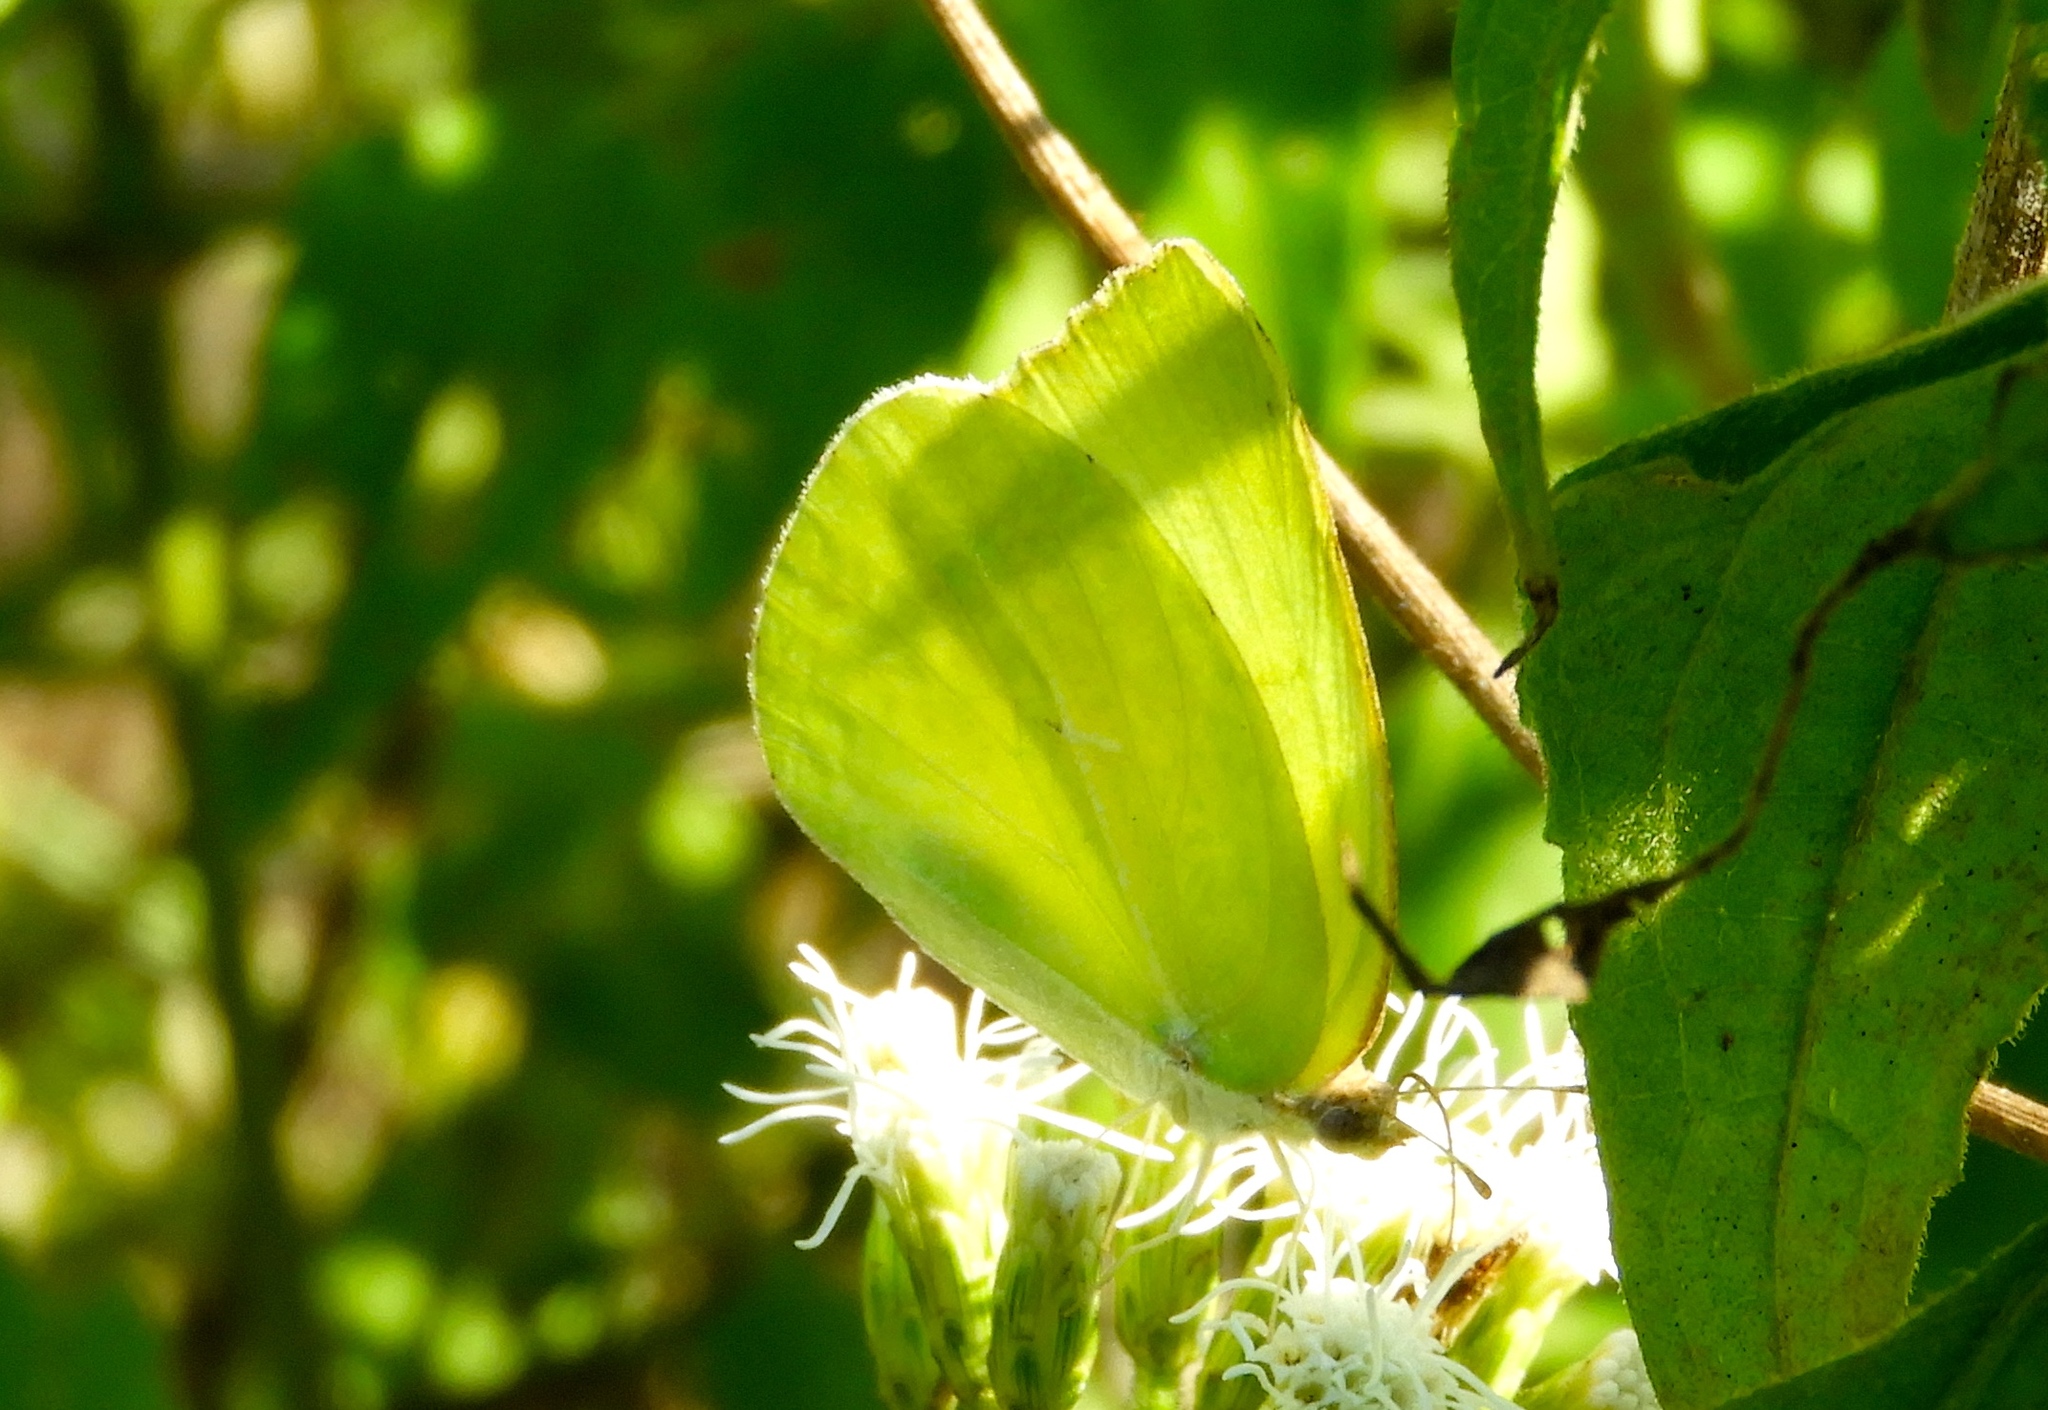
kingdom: Animalia
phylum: Arthropoda
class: Insecta
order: Lepidoptera
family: Pieridae
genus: Kricogonia
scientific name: Kricogonia lyside
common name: Guayacan sulphur,
